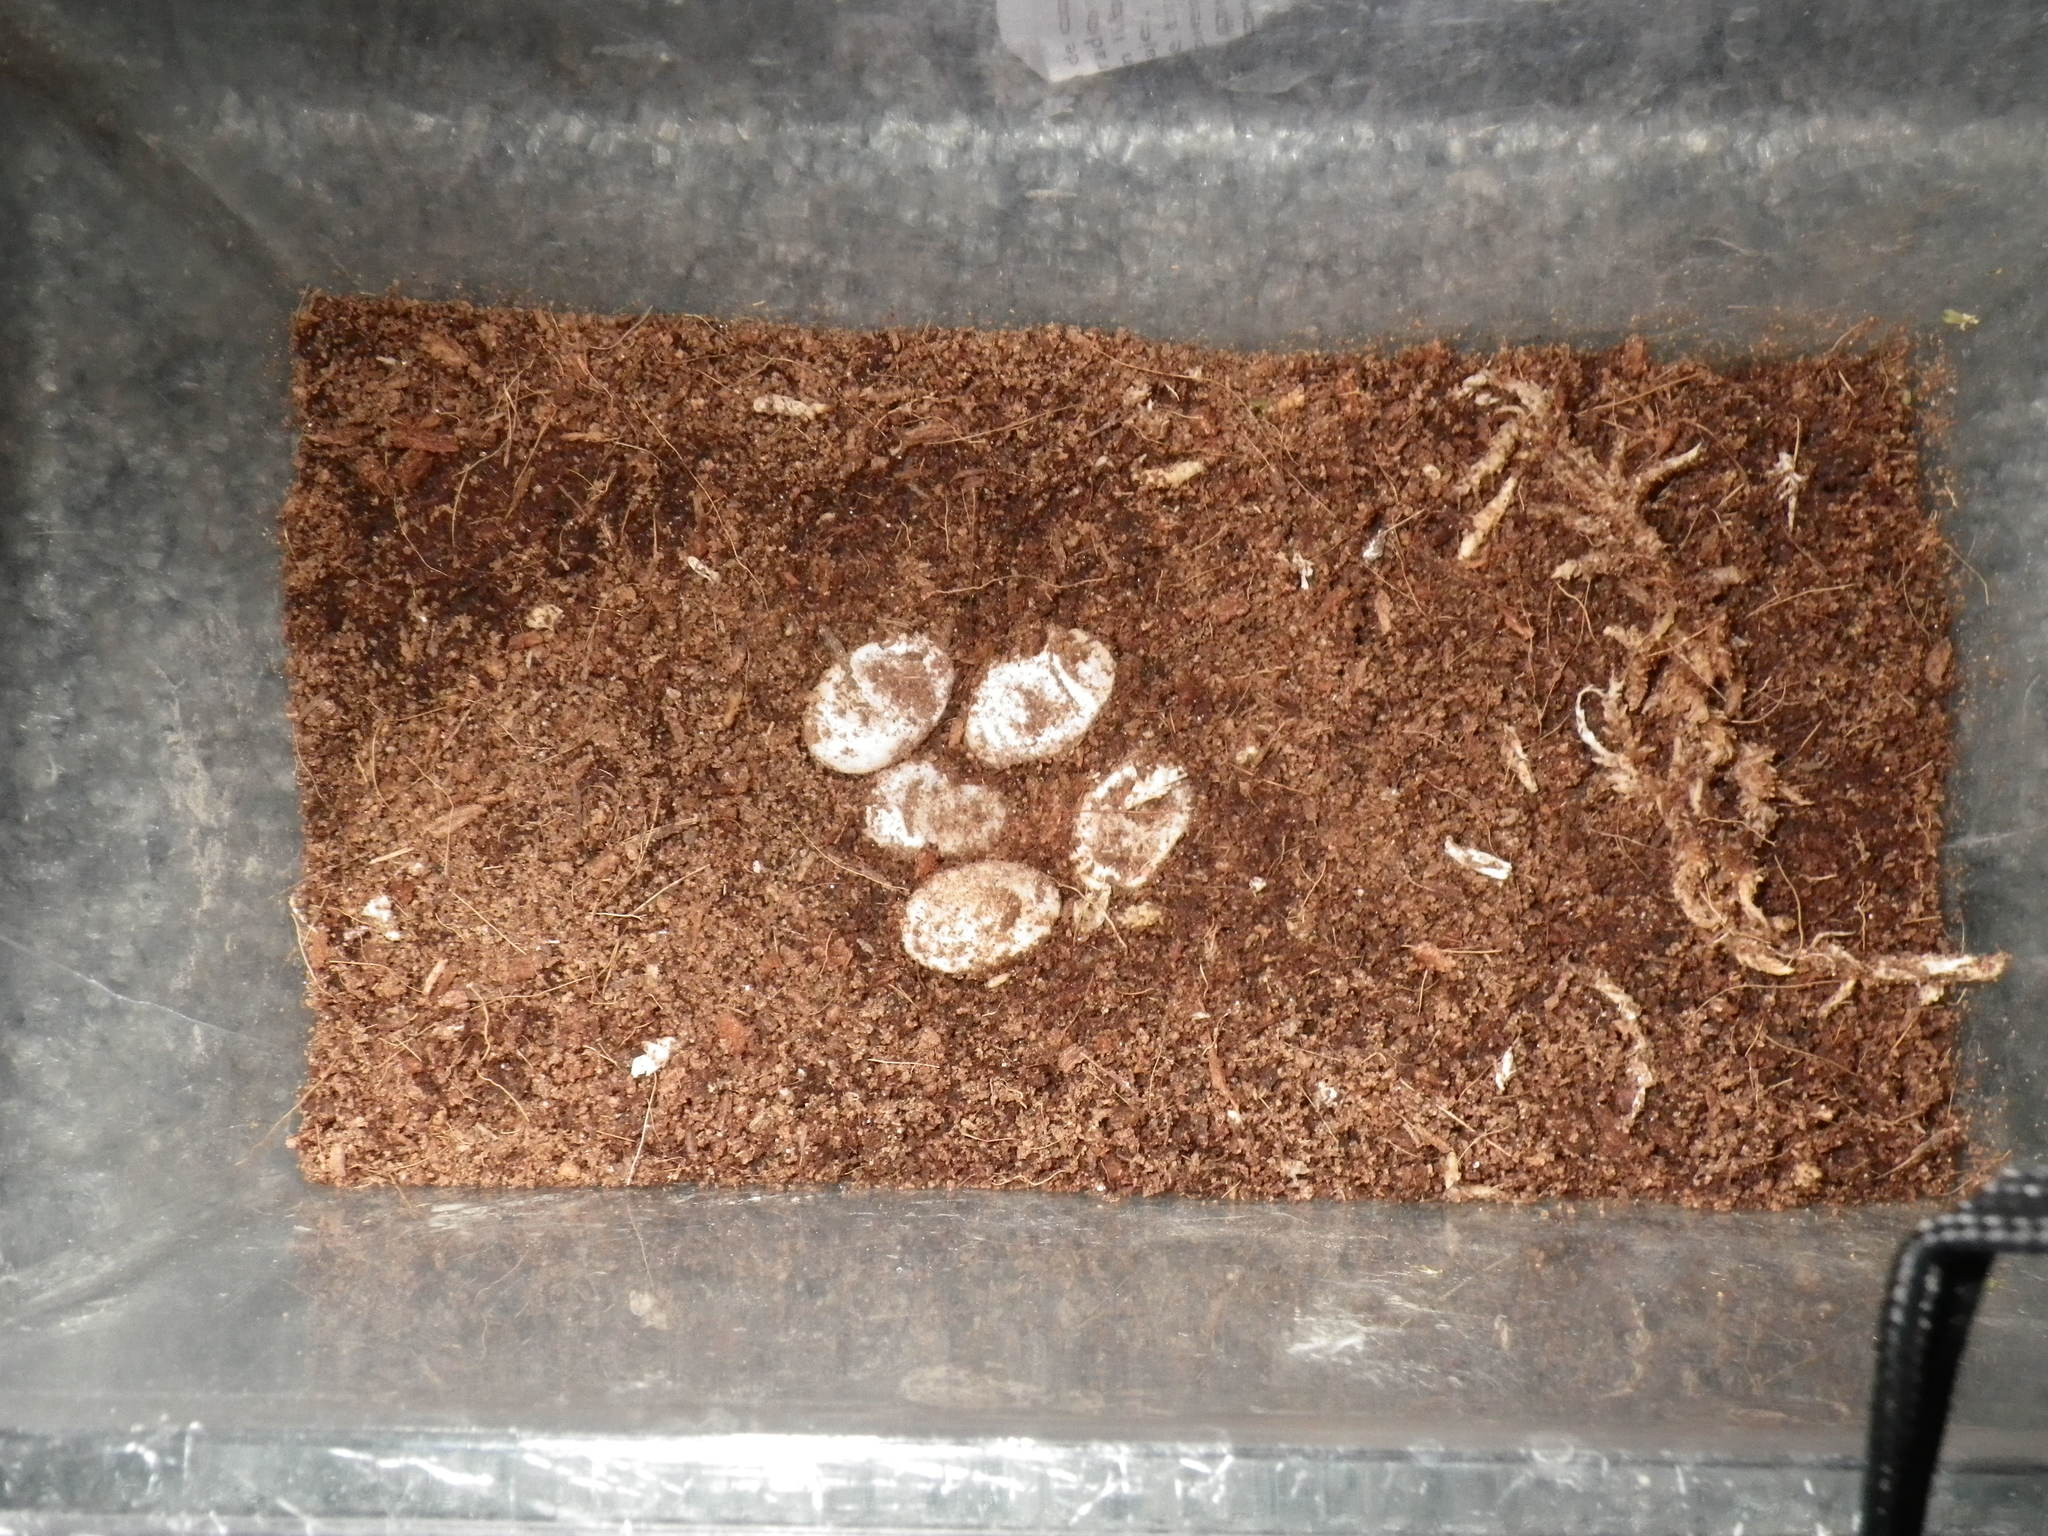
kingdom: Animalia
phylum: Chordata
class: Squamata
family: Anguidae
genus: Elgaria
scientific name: Elgaria multicarinata
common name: Southern alligator lizard
